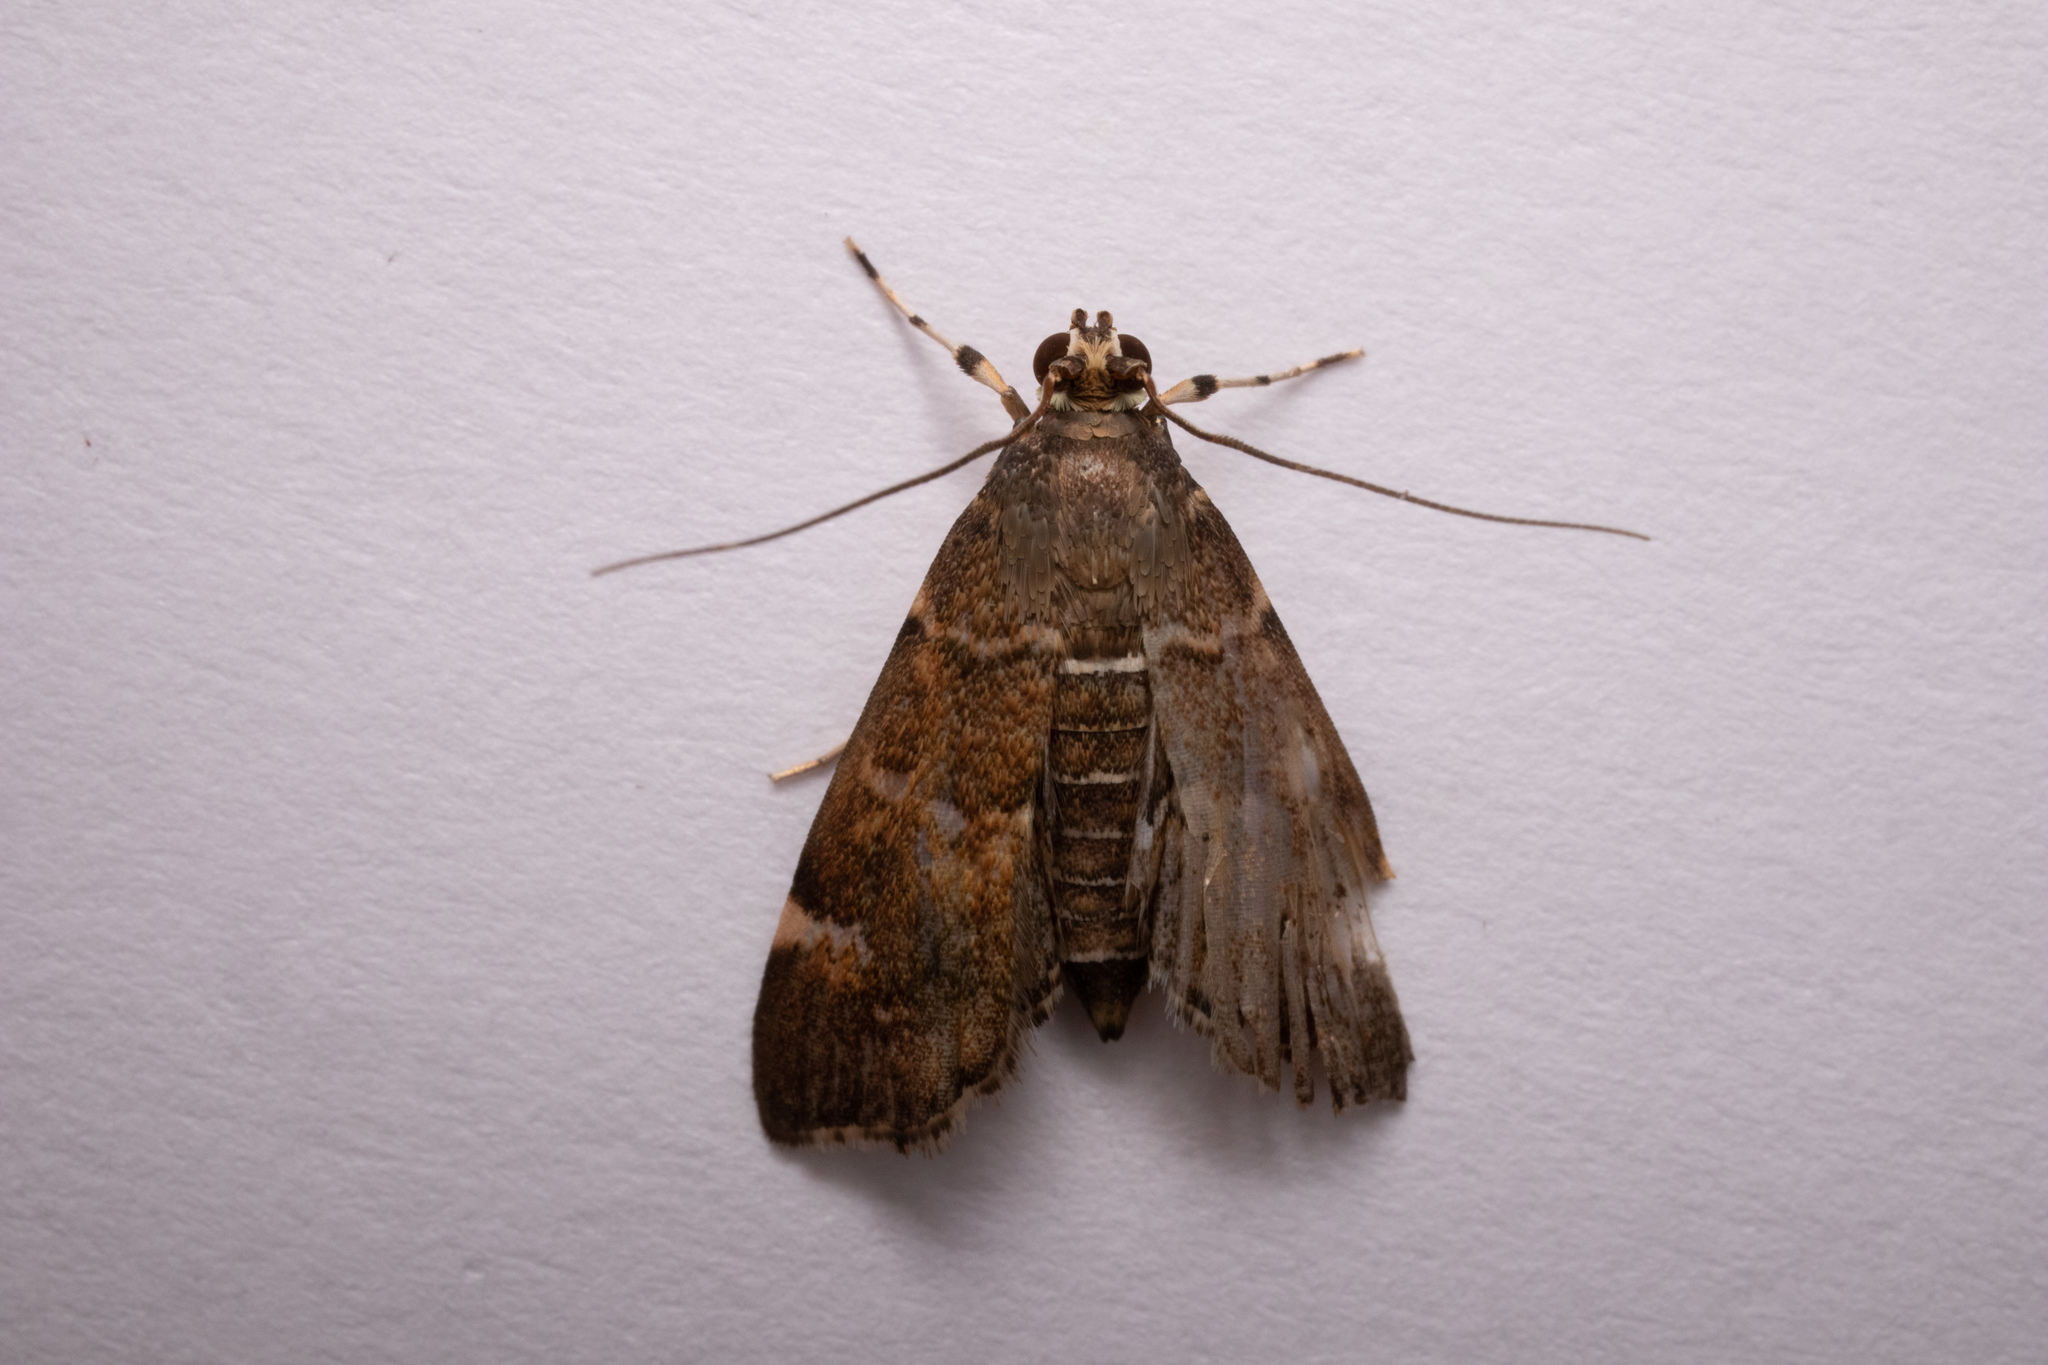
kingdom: Animalia
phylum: Arthropoda
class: Insecta
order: Lepidoptera
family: Crambidae
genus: Hymenia
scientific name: Hymenia perspectalis
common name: Spotted beet webworm
